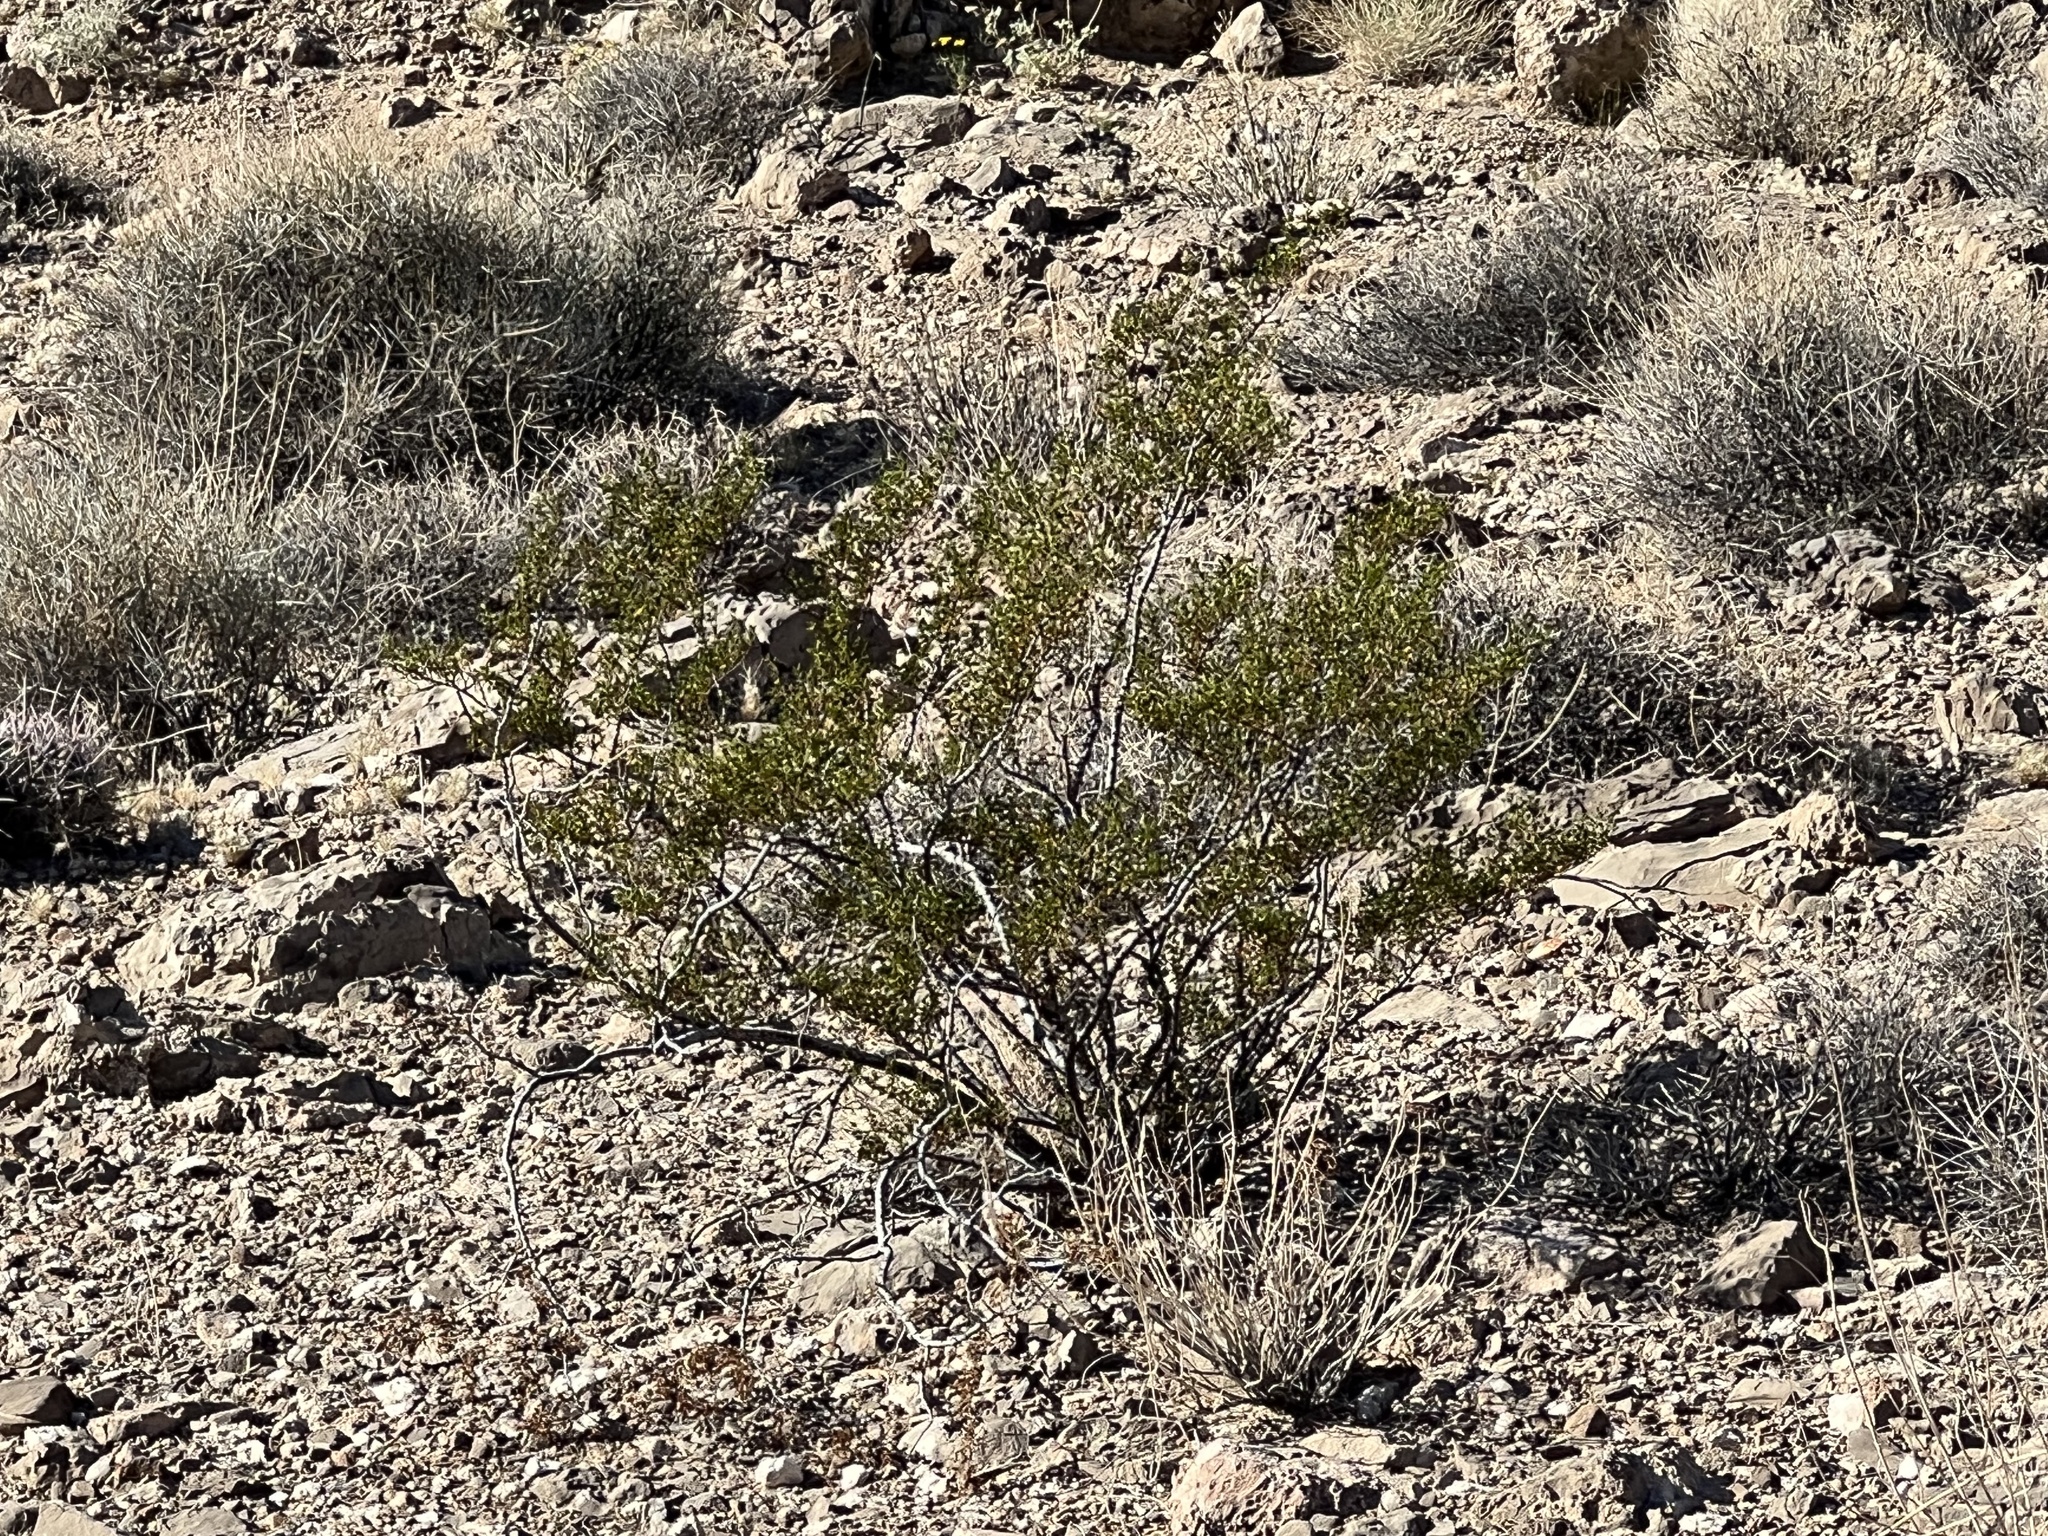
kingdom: Plantae
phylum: Tracheophyta
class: Magnoliopsida
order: Zygophyllales
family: Zygophyllaceae
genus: Larrea
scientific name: Larrea tridentata
